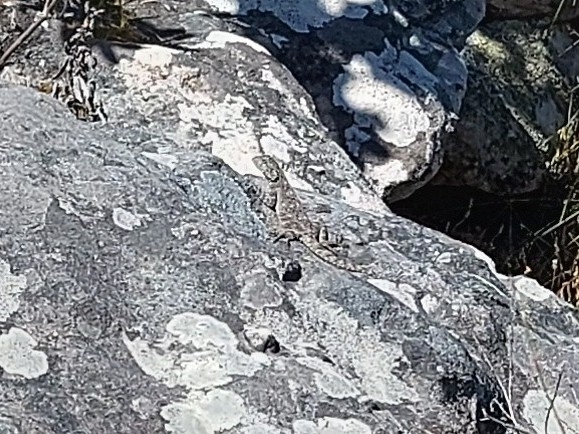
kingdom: Animalia
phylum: Chordata
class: Squamata
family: Agamidae
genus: Agama
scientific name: Agama atra
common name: Southern african rock agama
